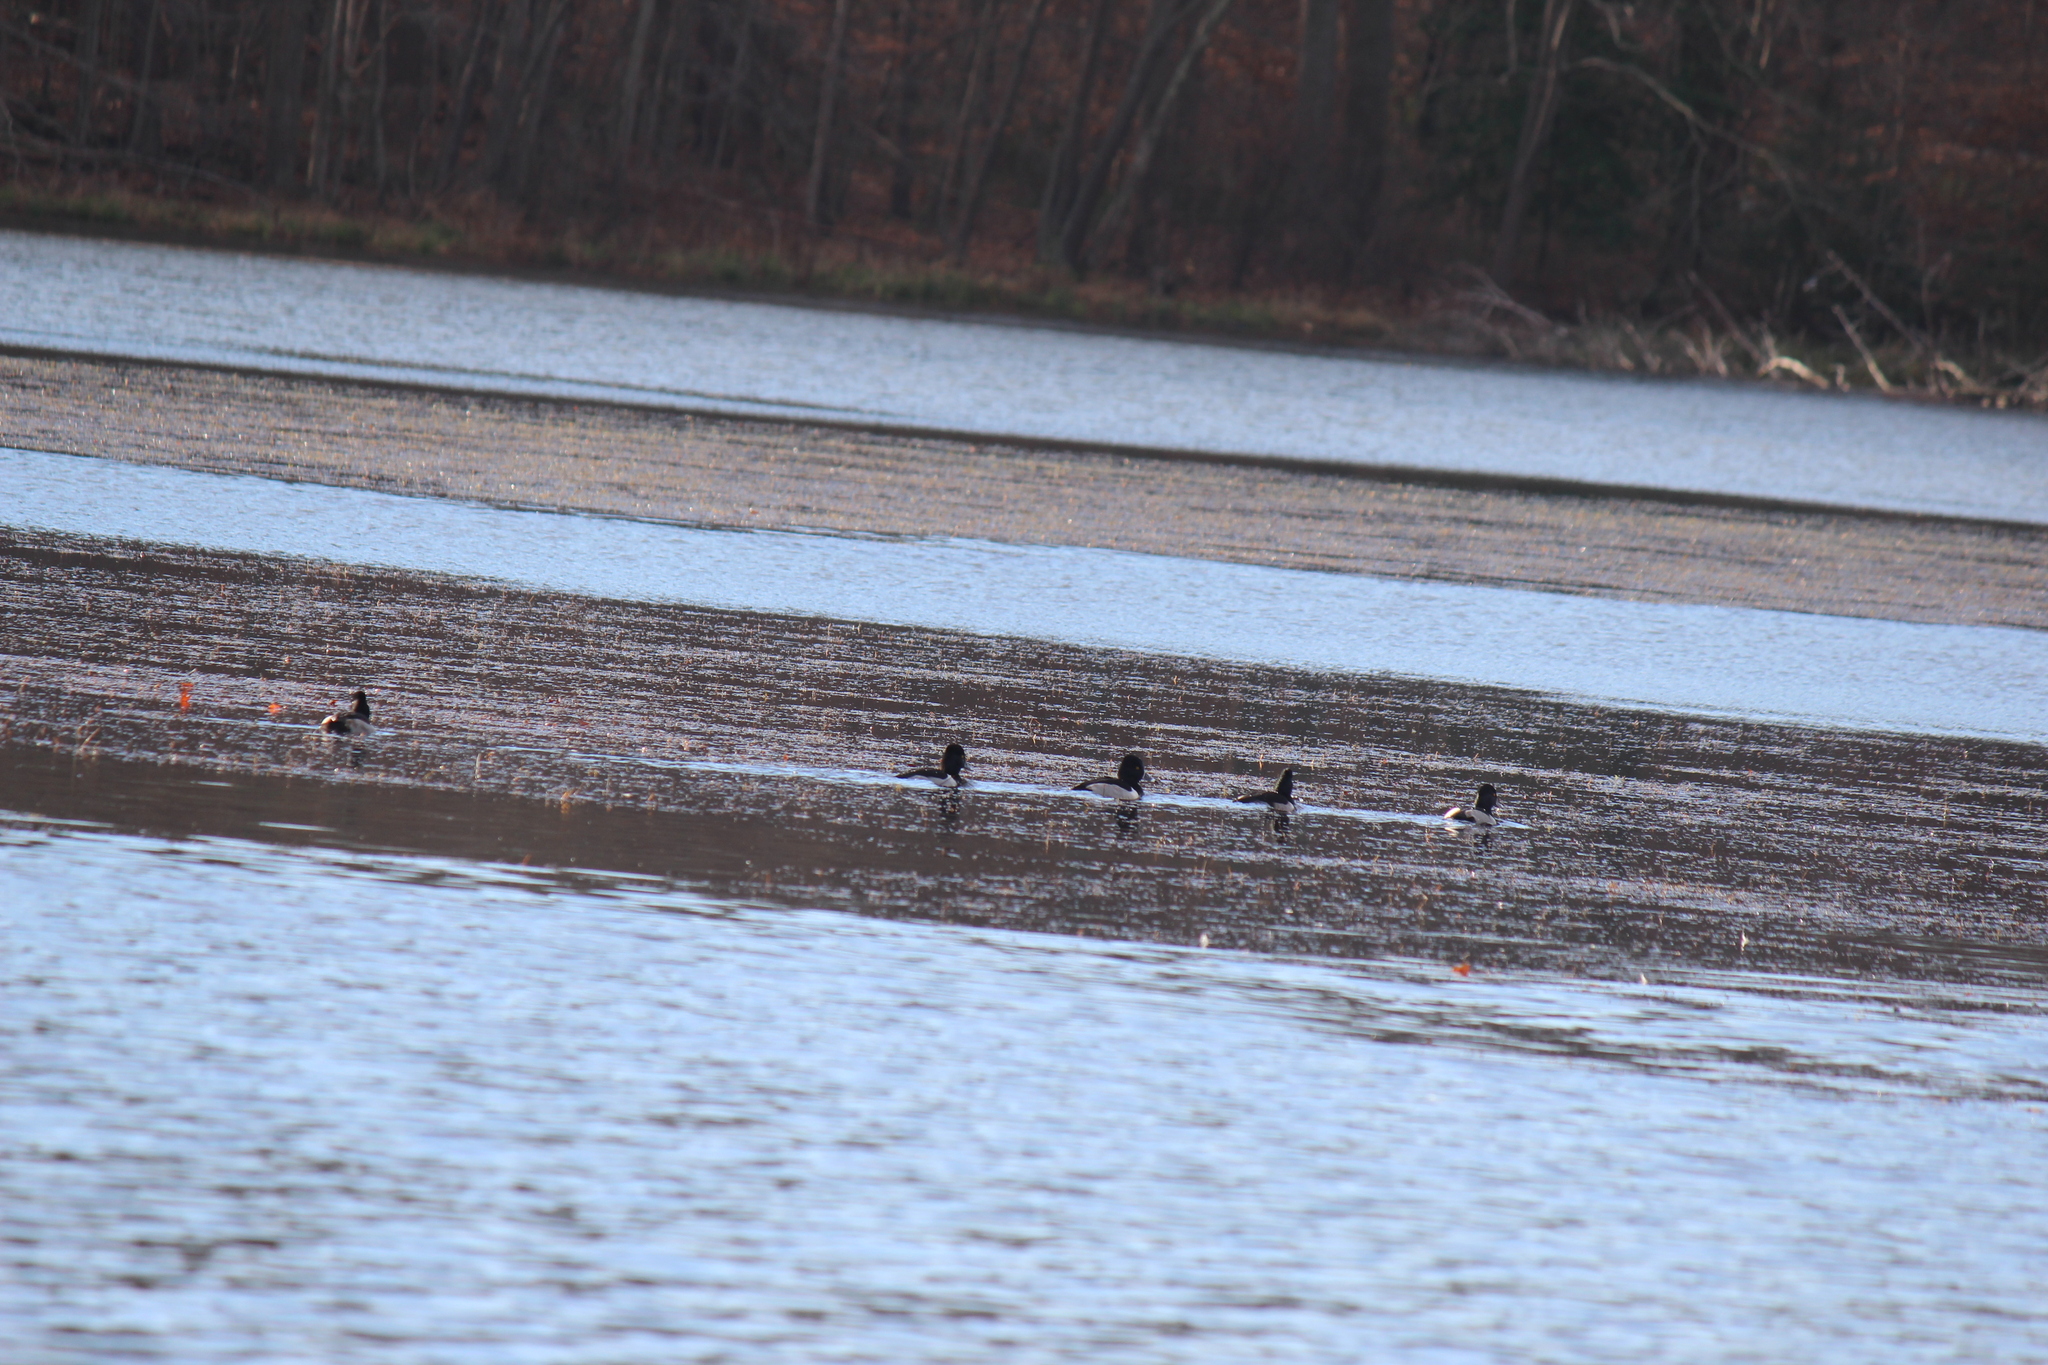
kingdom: Animalia
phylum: Chordata
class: Aves
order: Anseriformes
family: Anatidae
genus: Aythya
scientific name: Aythya collaris
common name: Ring-necked duck
